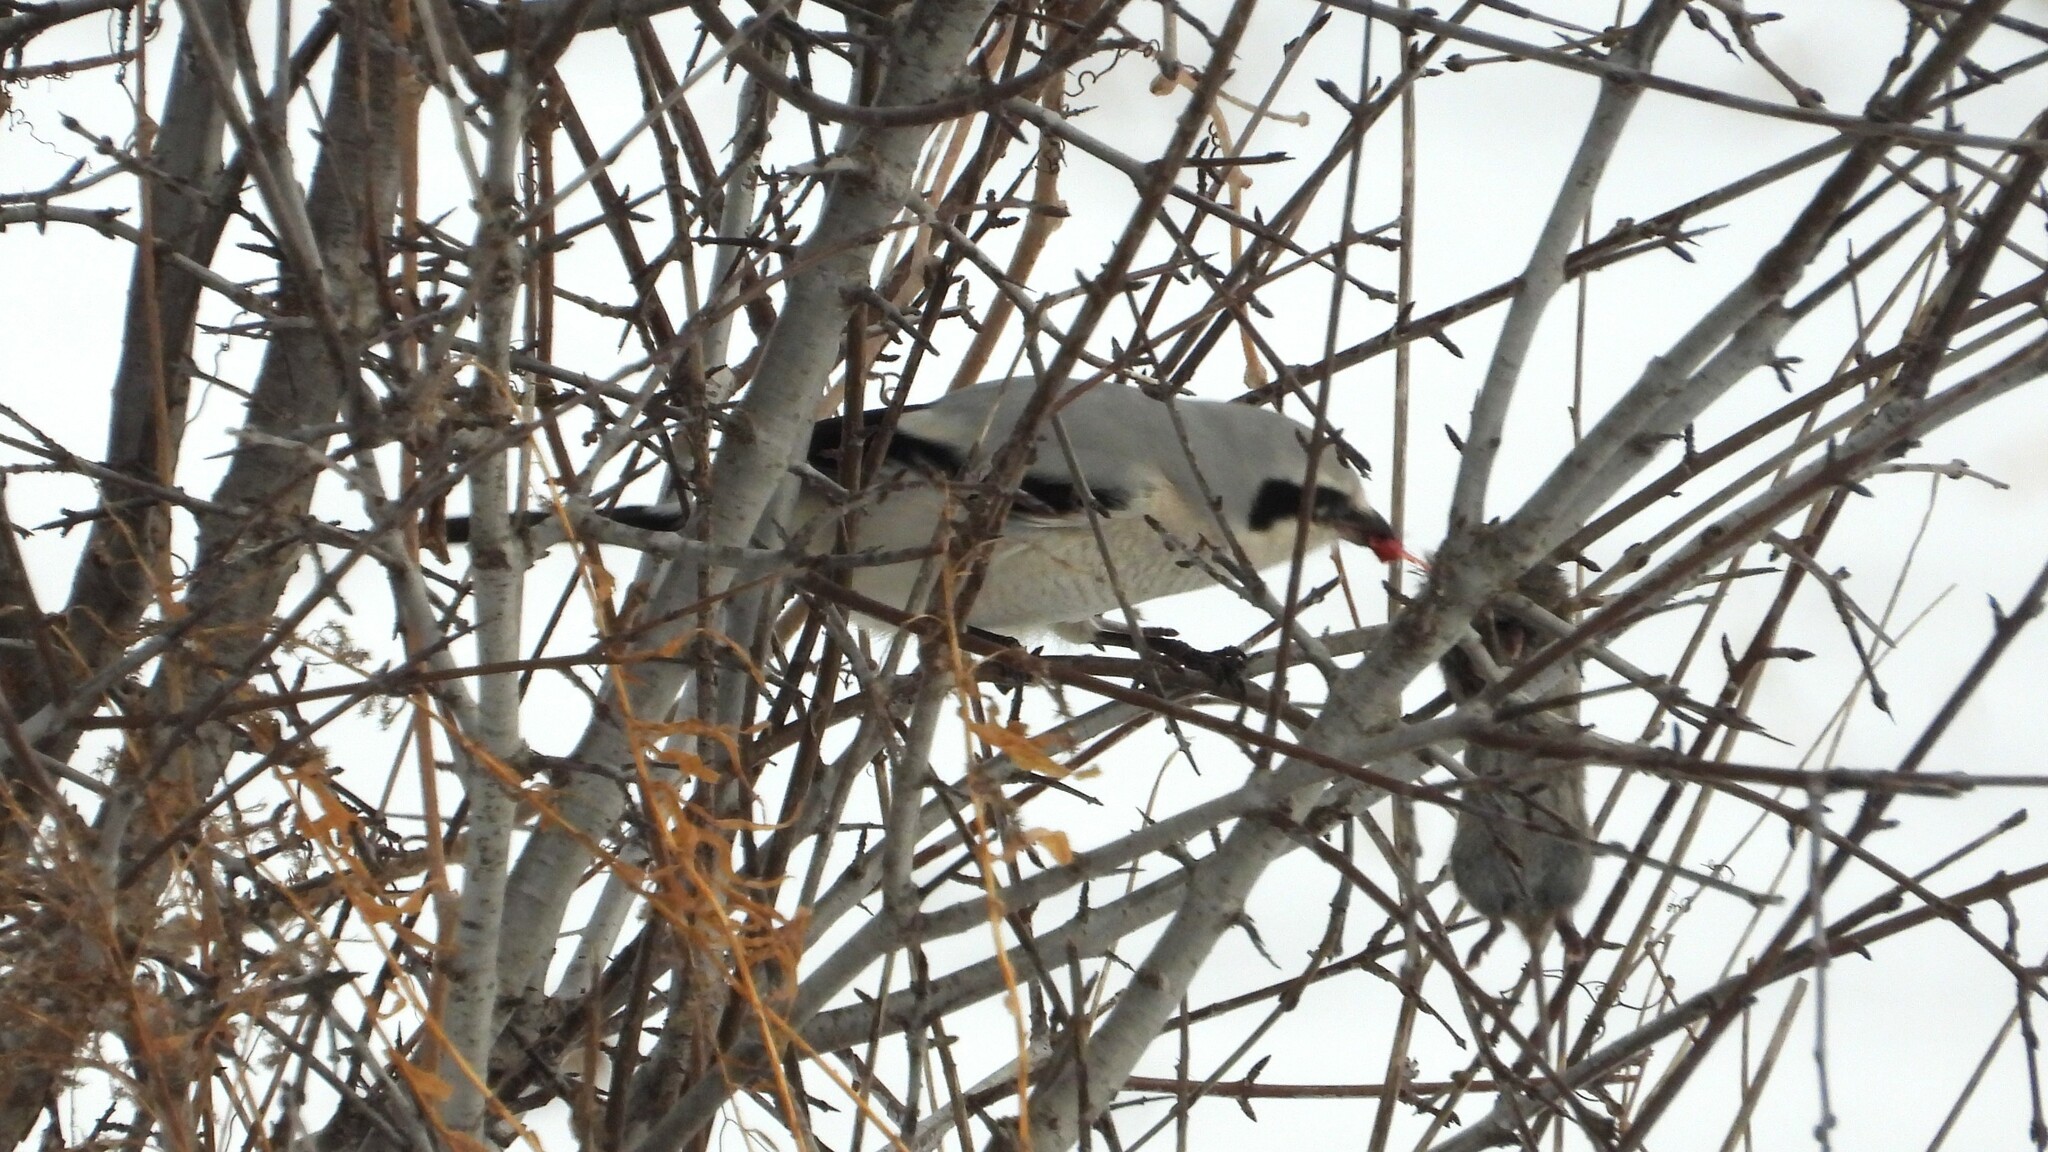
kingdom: Animalia
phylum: Chordata
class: Aves
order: Passeriformes
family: Laniidae
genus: Lanius
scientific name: Lanius borealis
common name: Northern shrike
